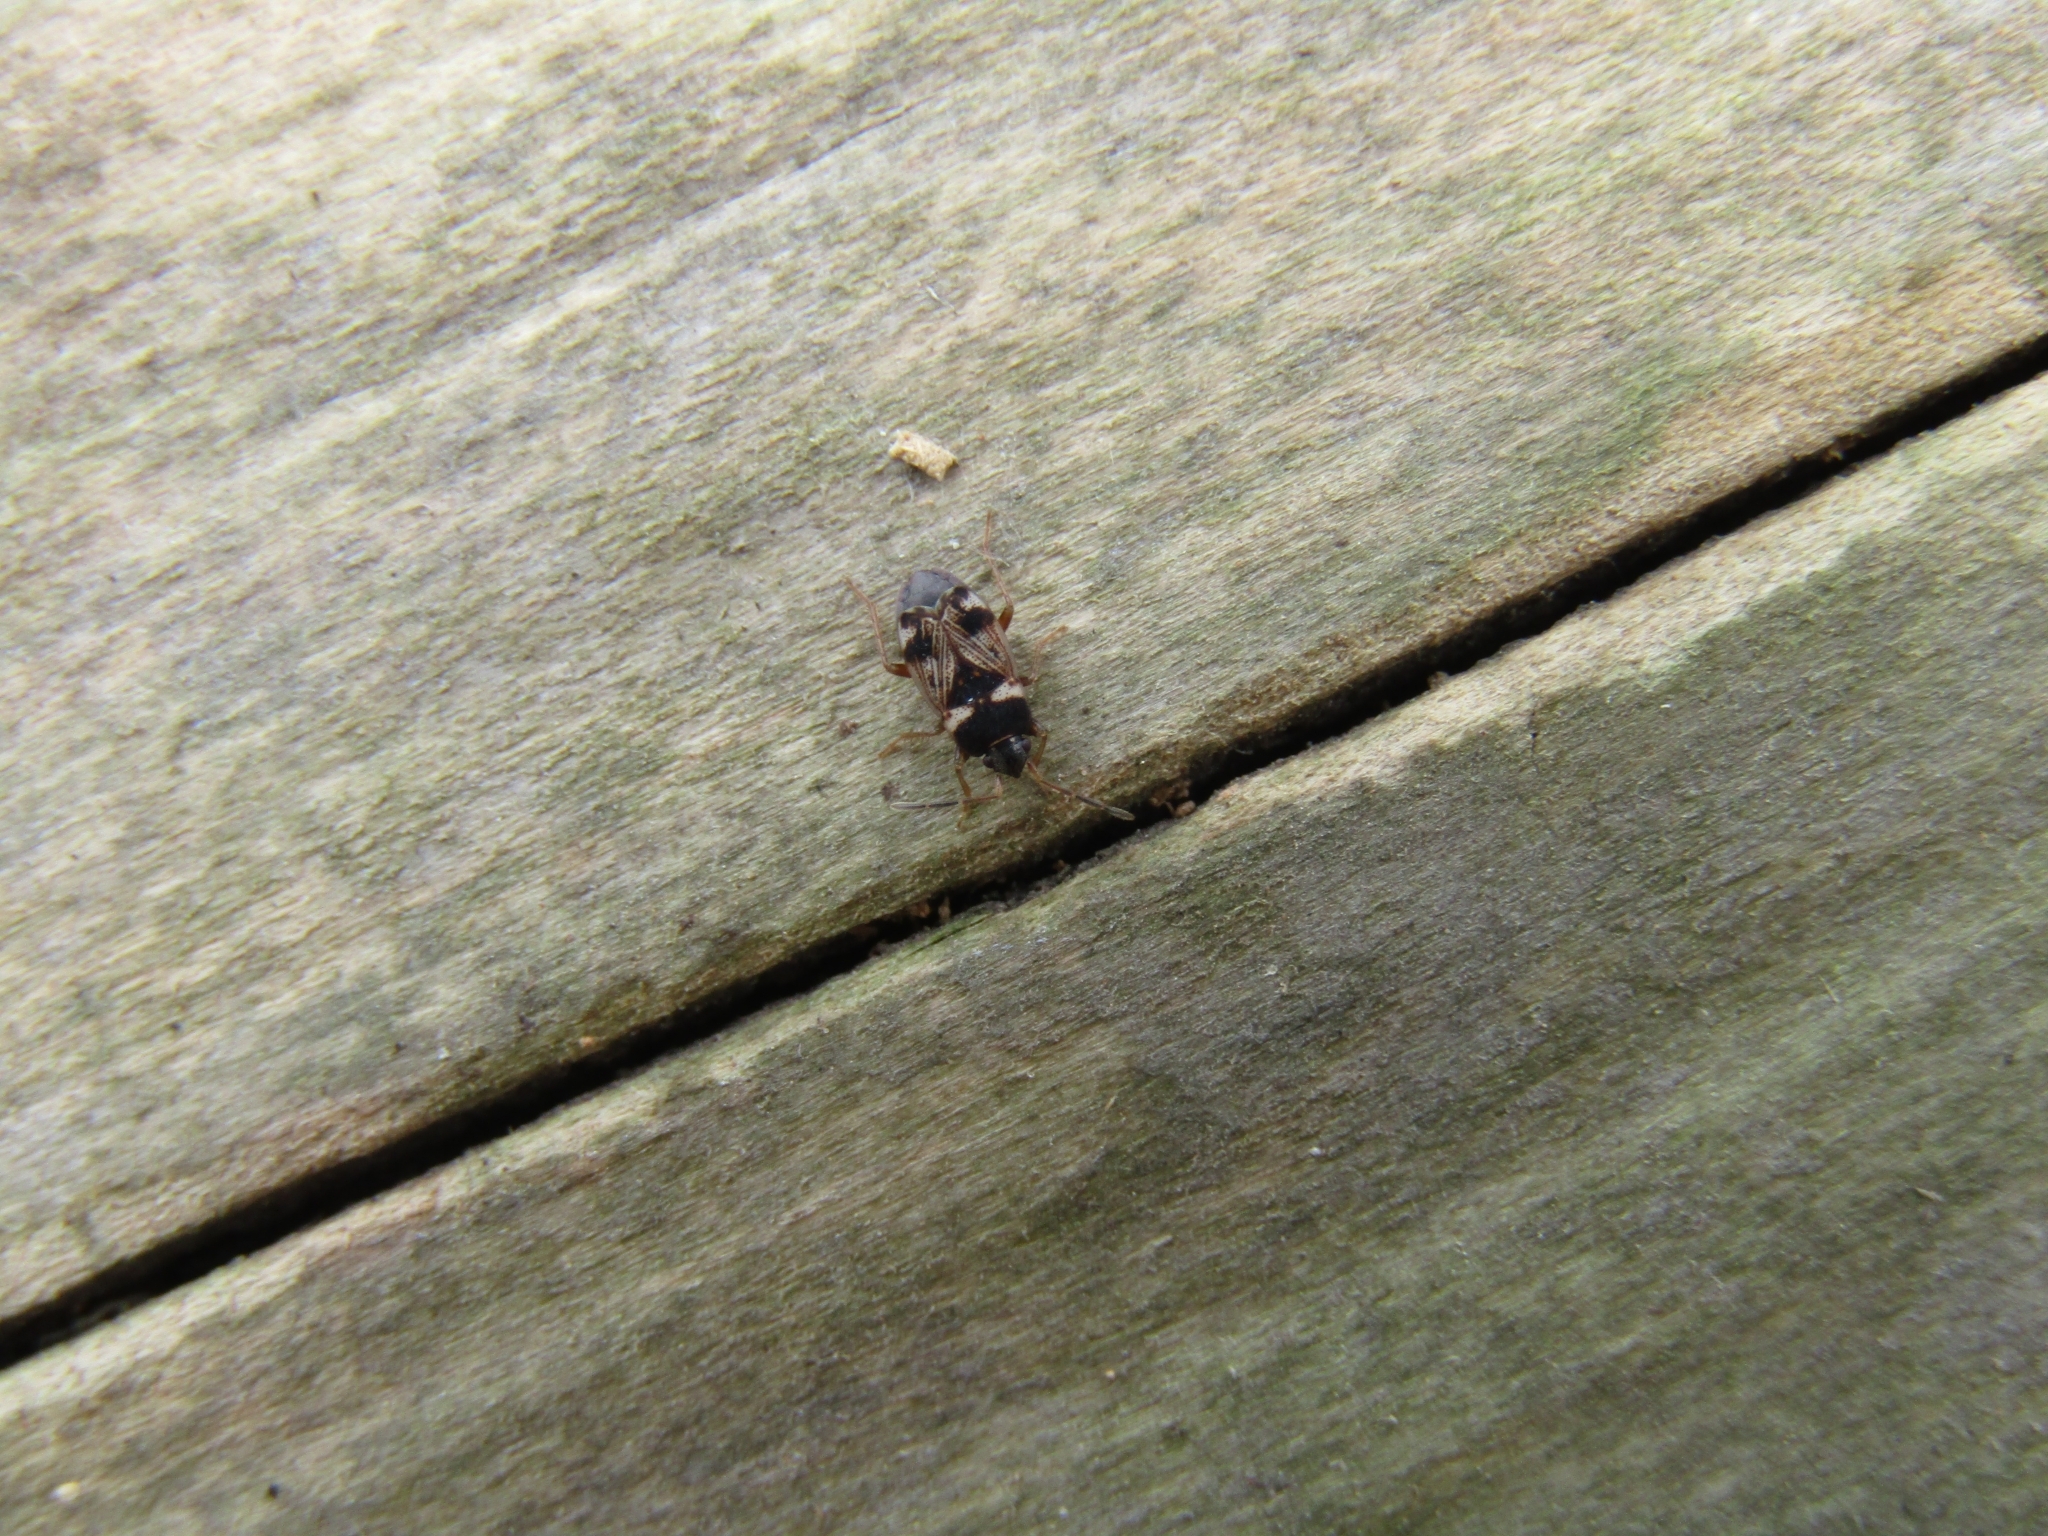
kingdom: Animalia
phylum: Arthropoda
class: Insecta
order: Hemiptera
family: Rhyparochromidae
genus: Cryphula
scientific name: Cryphula rivierei
